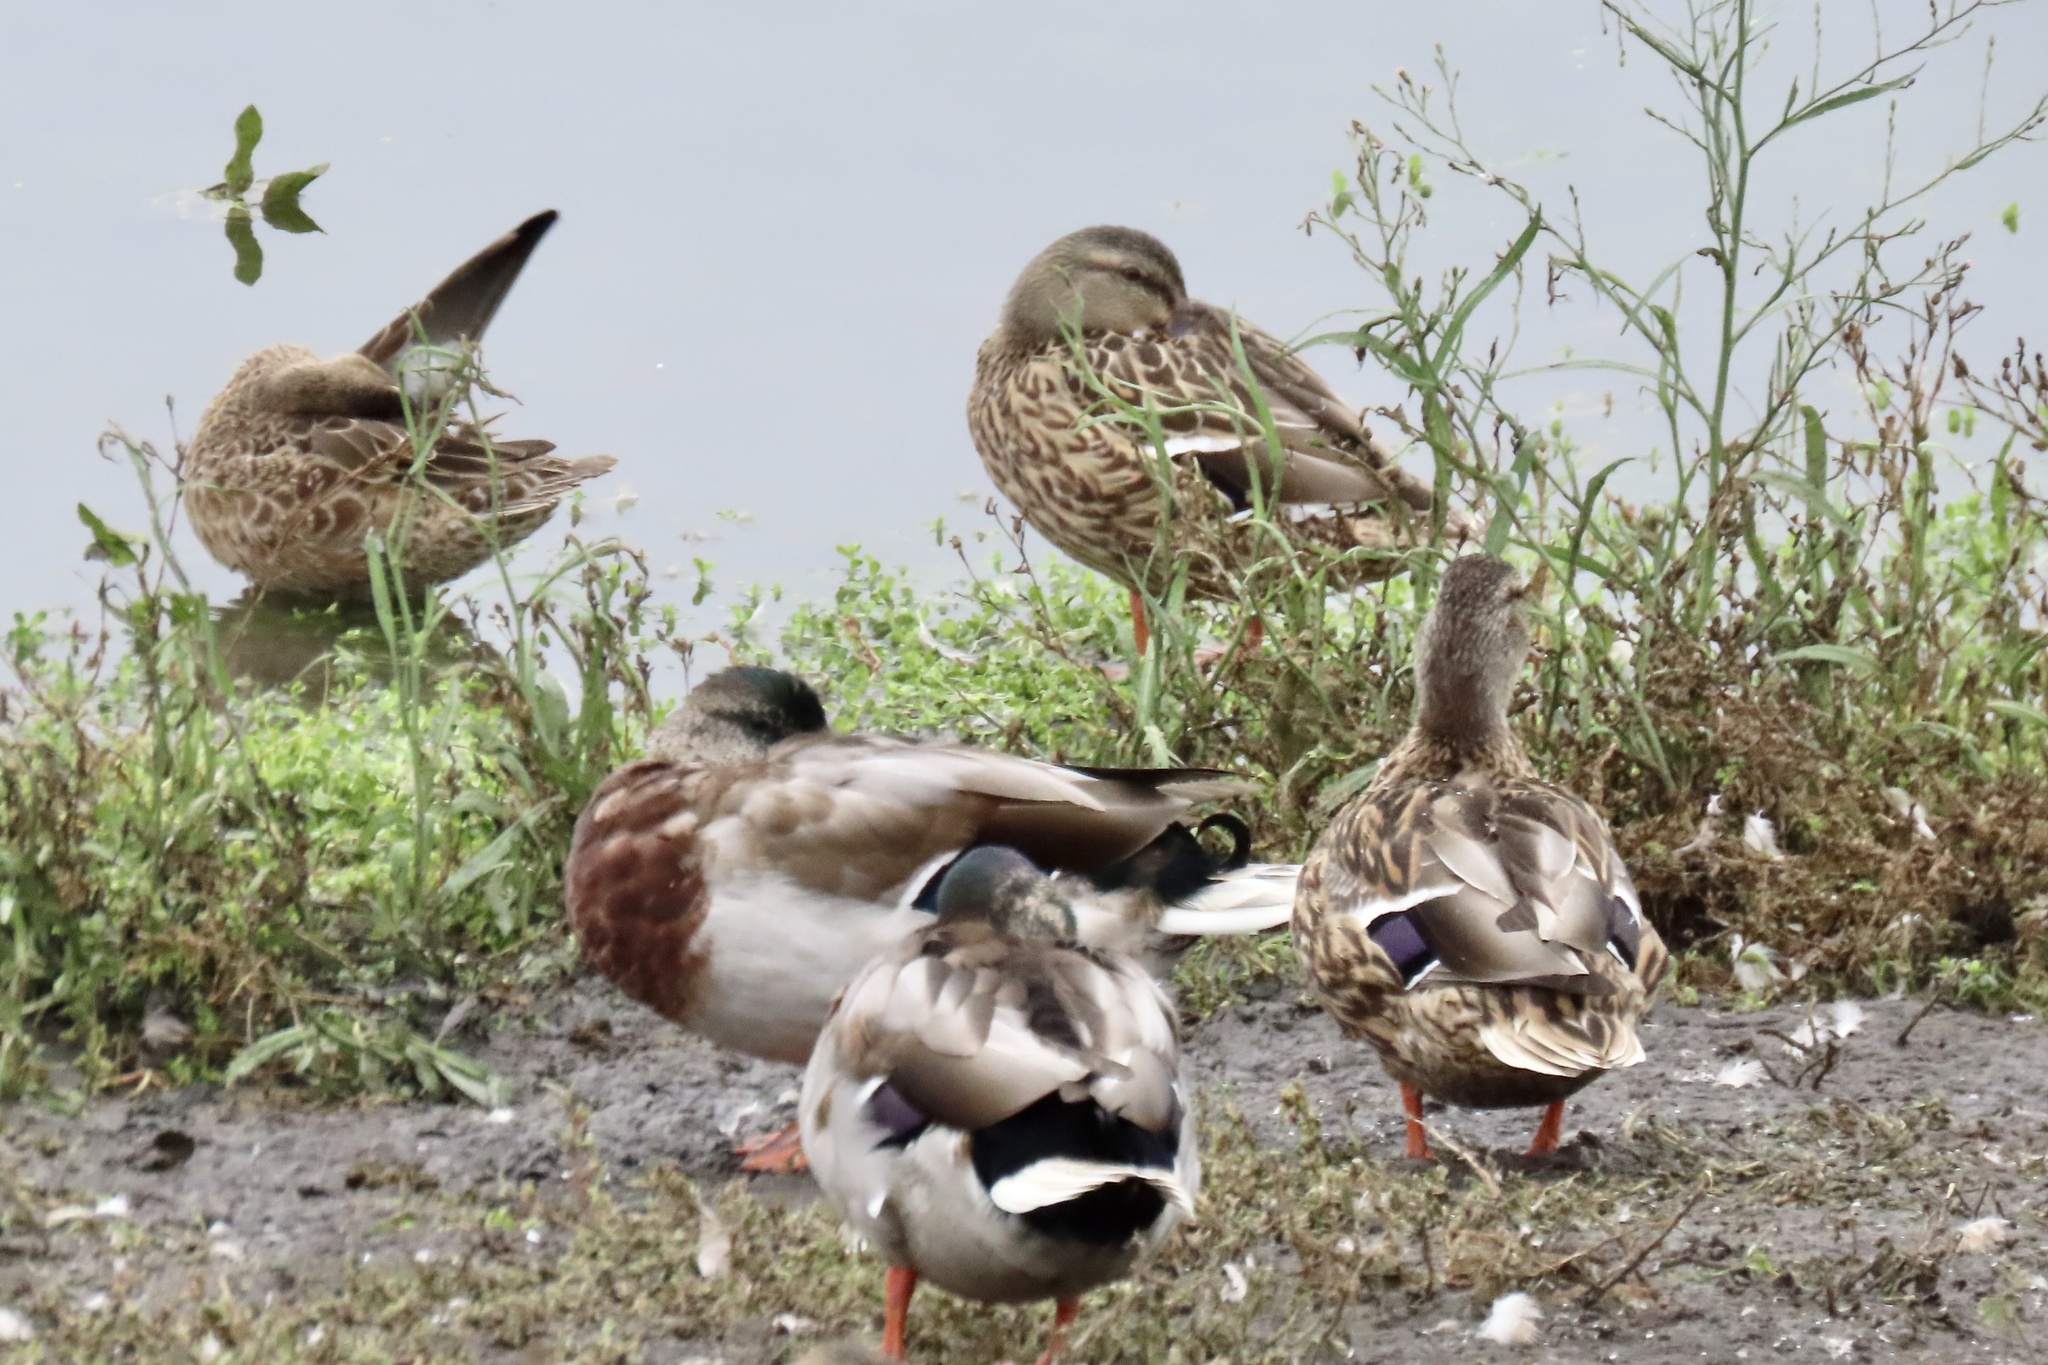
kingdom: Animalia
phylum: Chordata
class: Aves
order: Anseriformes
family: Anatidae
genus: Anas
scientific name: Anas platyrhynchos
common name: Mallard
